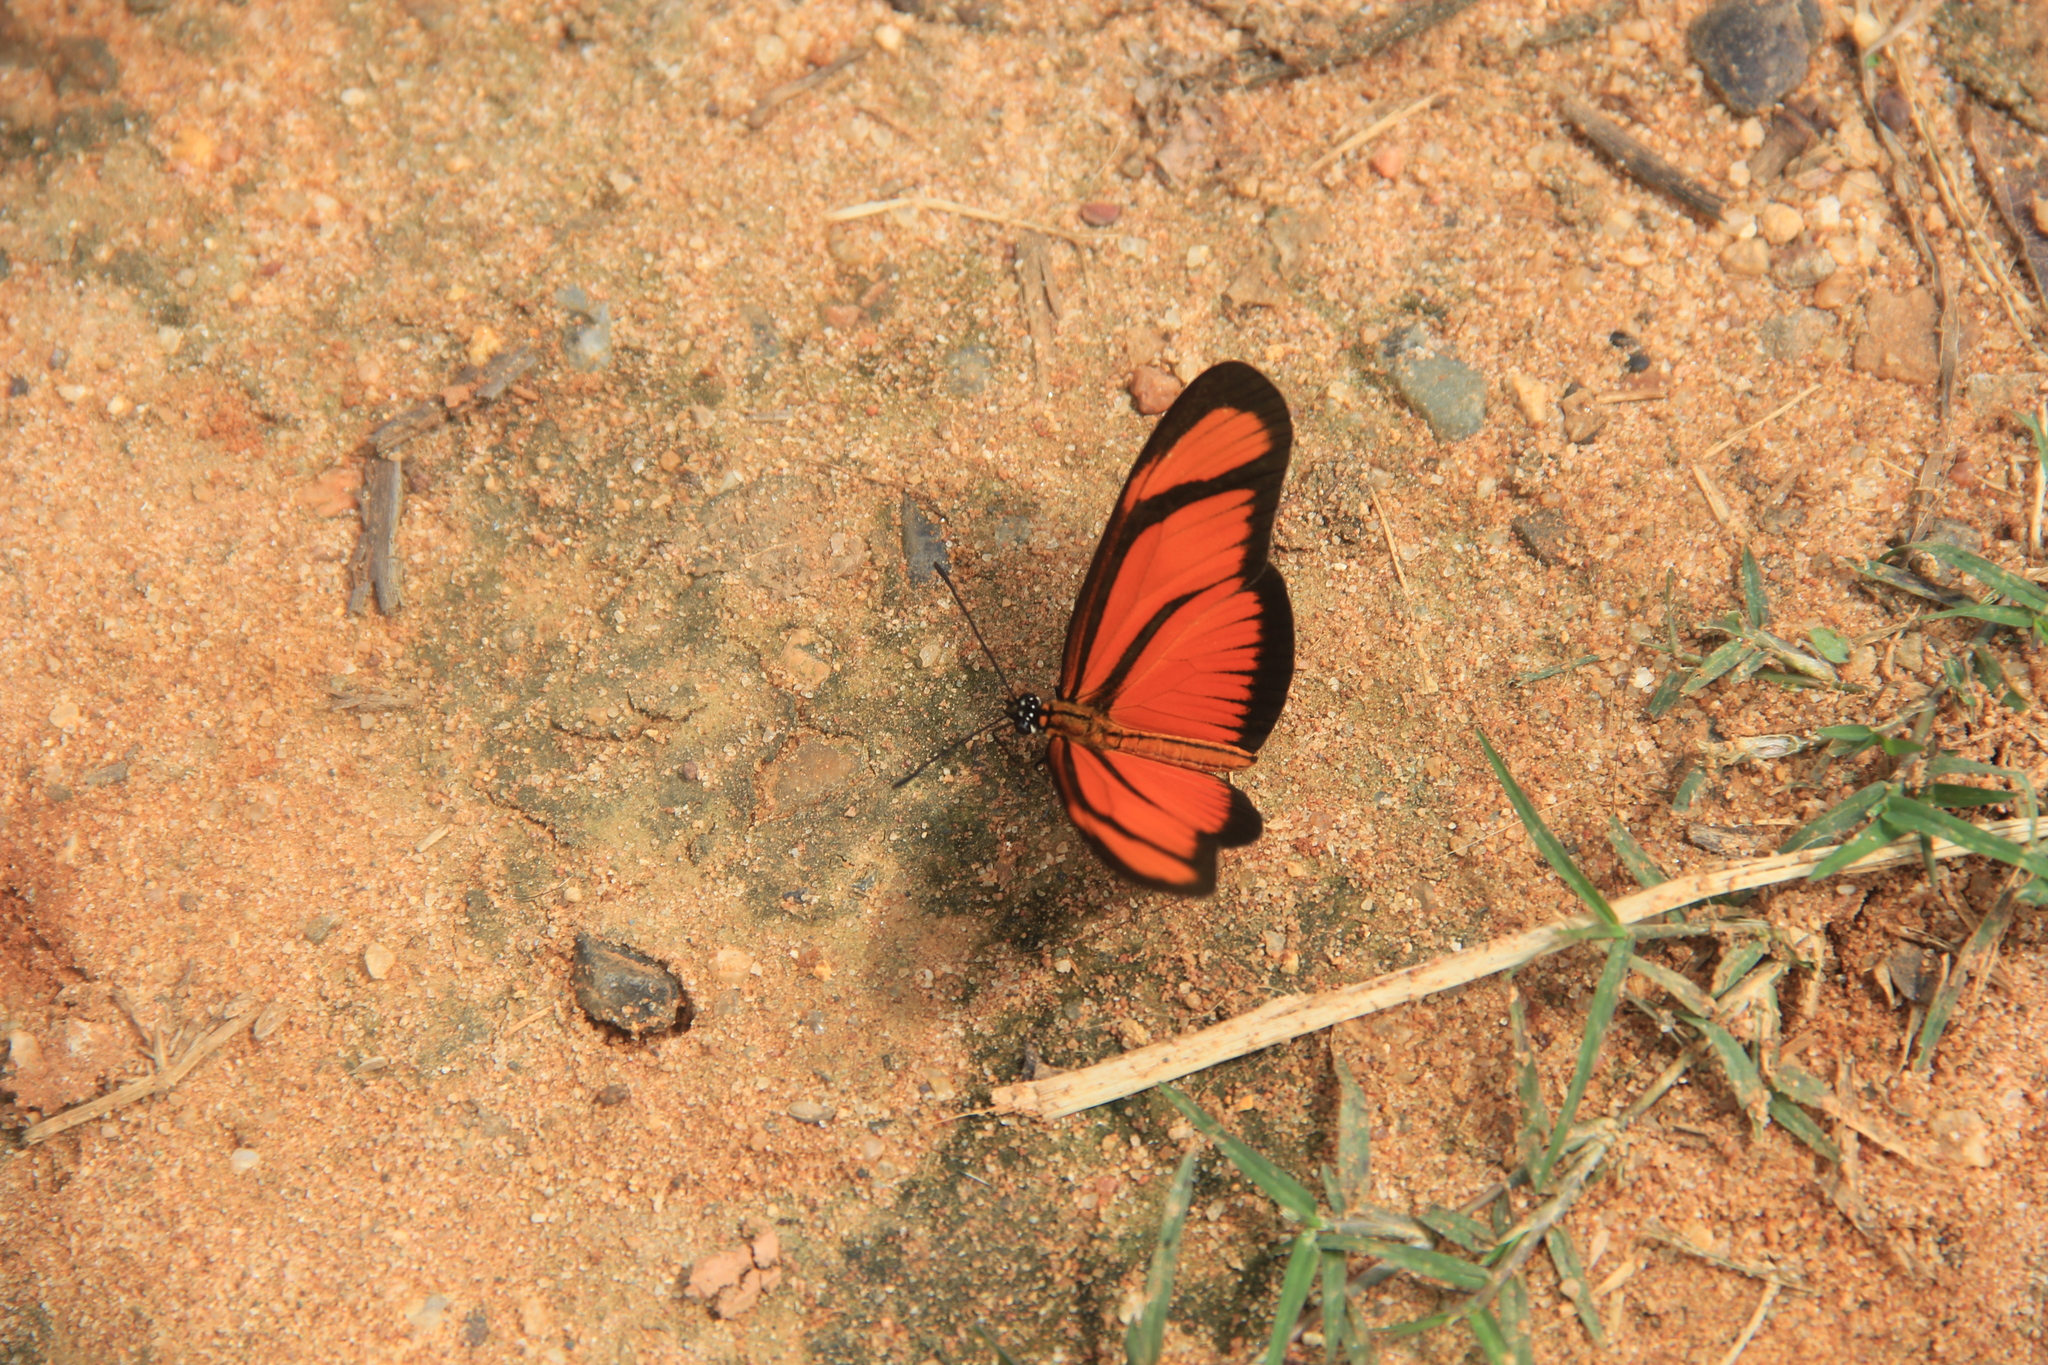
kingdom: Animalia
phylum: Arthropoda
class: Insecta
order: Lepidoptera
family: Nymphalidae
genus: Heliconius
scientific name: Heliconius aliphera
